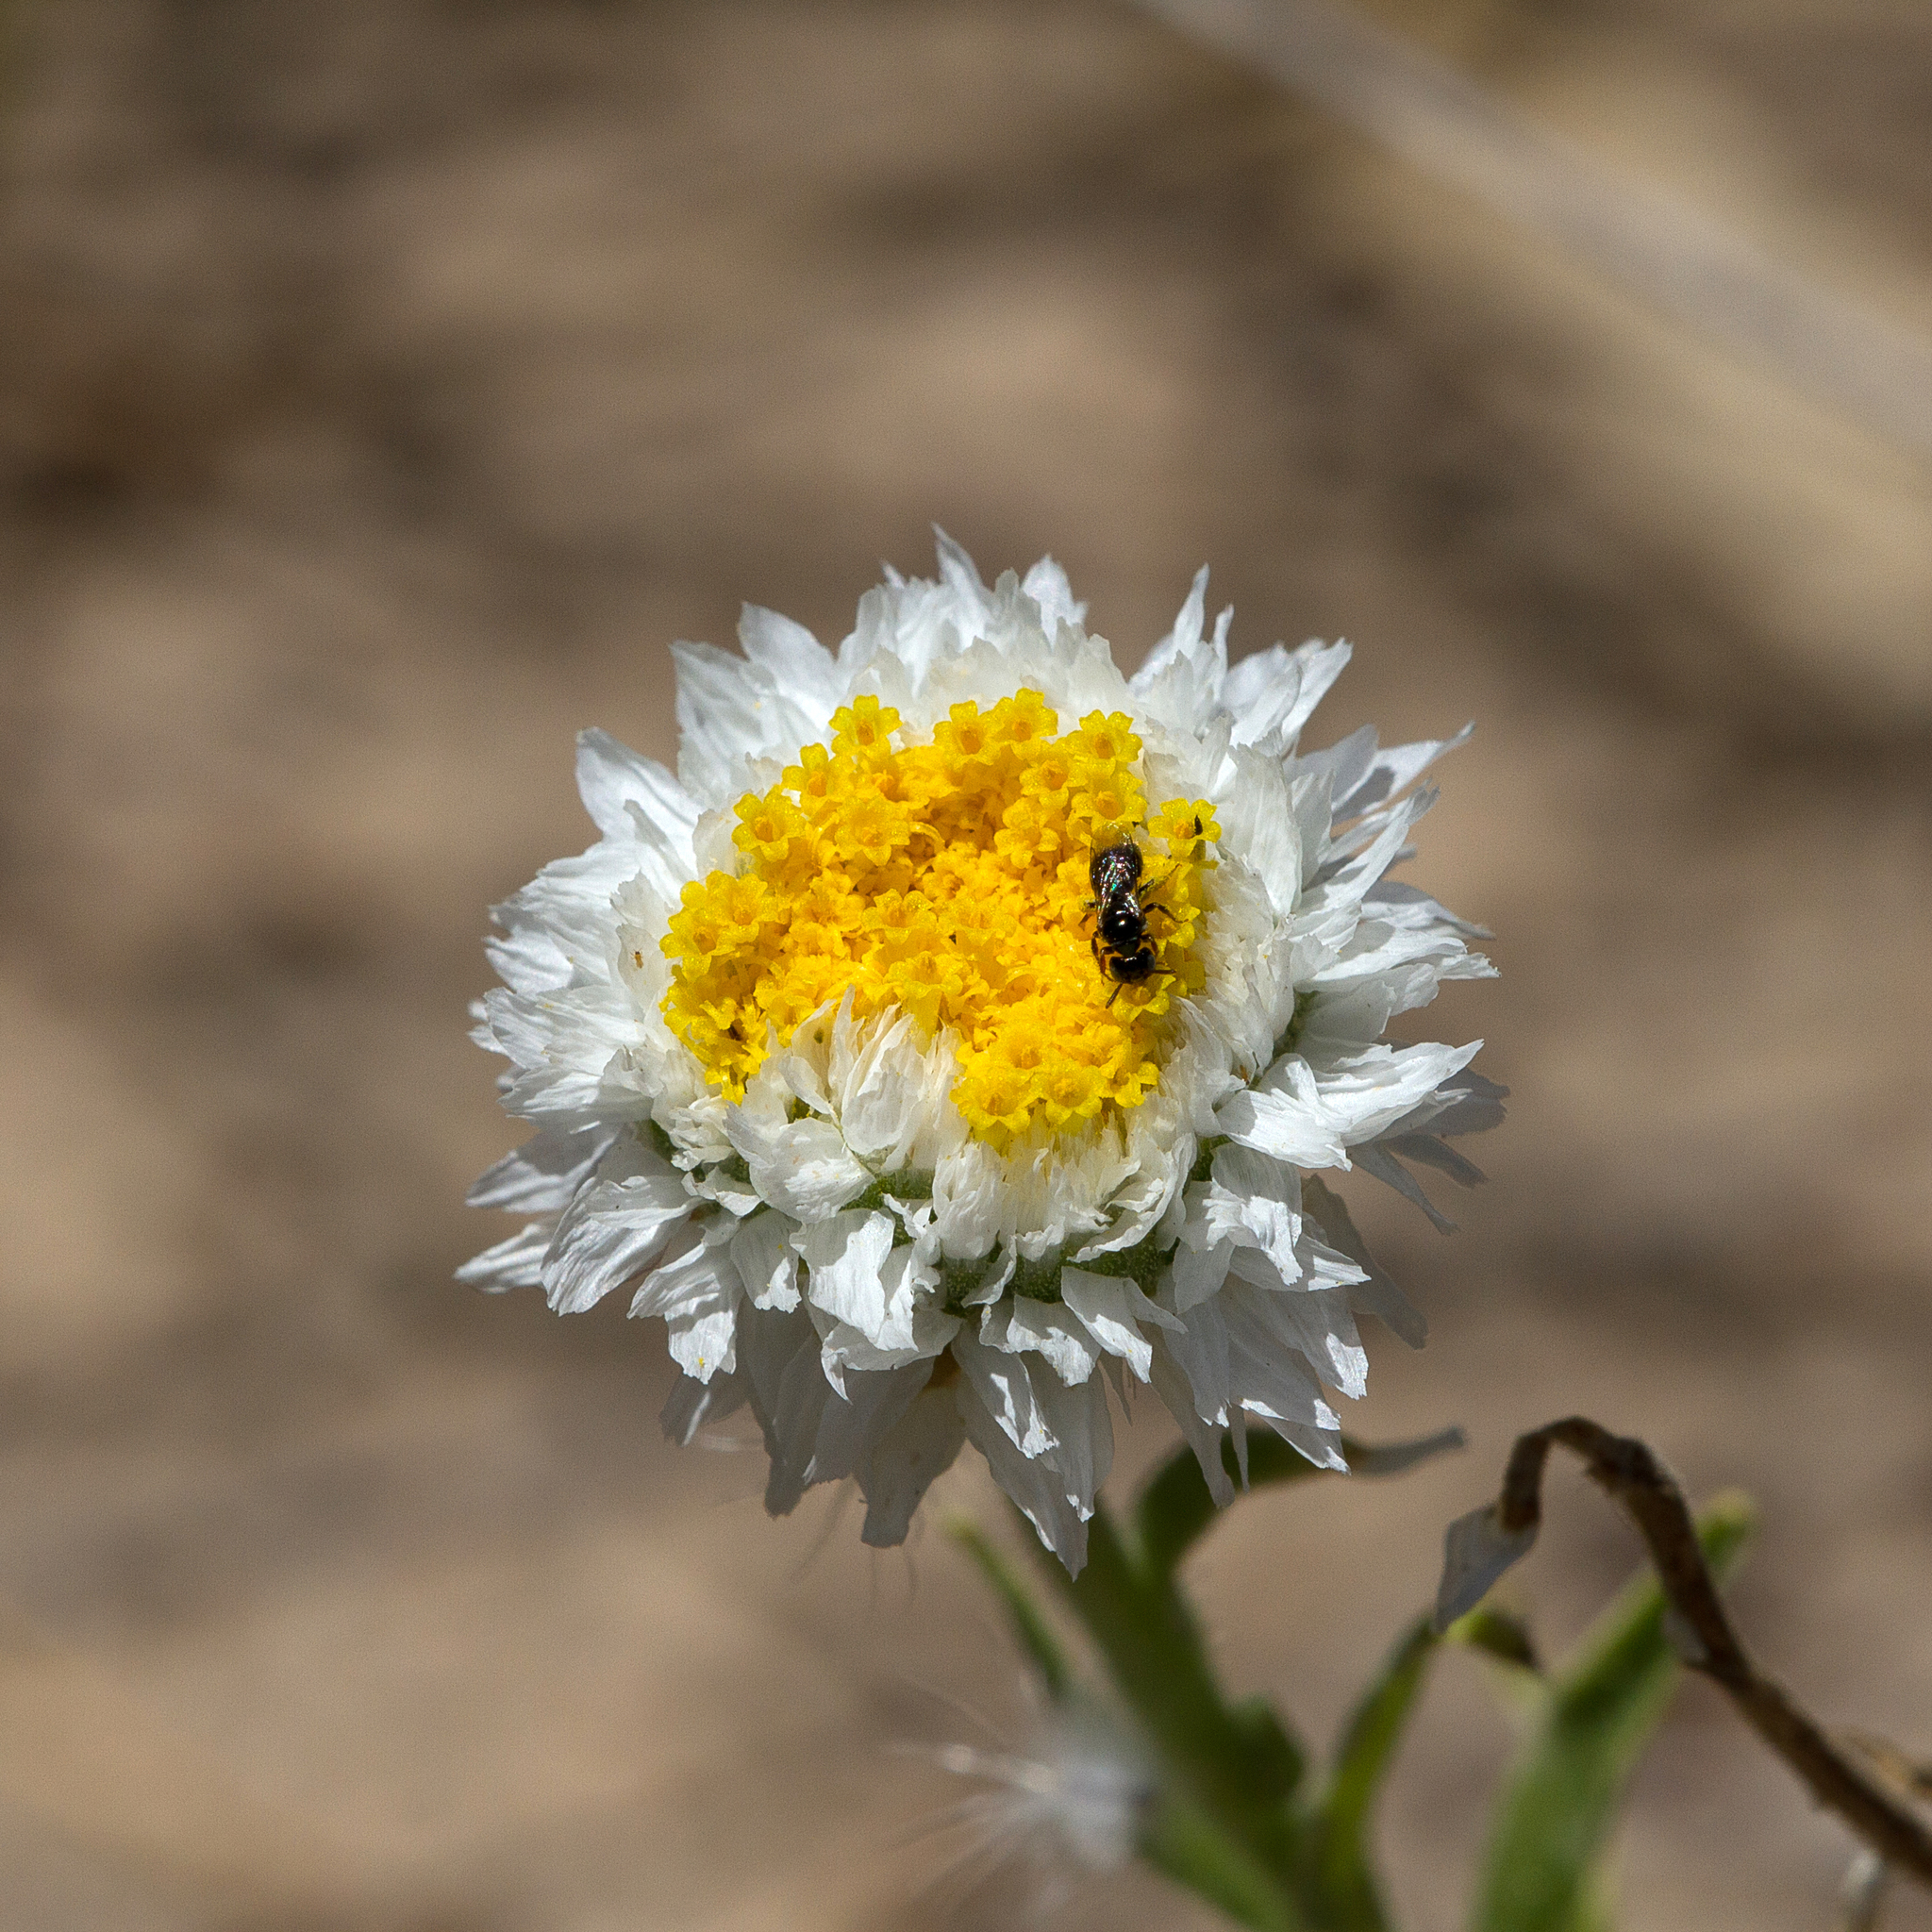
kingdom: Plantae
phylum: Tracheophyta
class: Magnoliopsida
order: Asterales
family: Asteraceae
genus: Polycalymma
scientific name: Polycalymma stuartii
